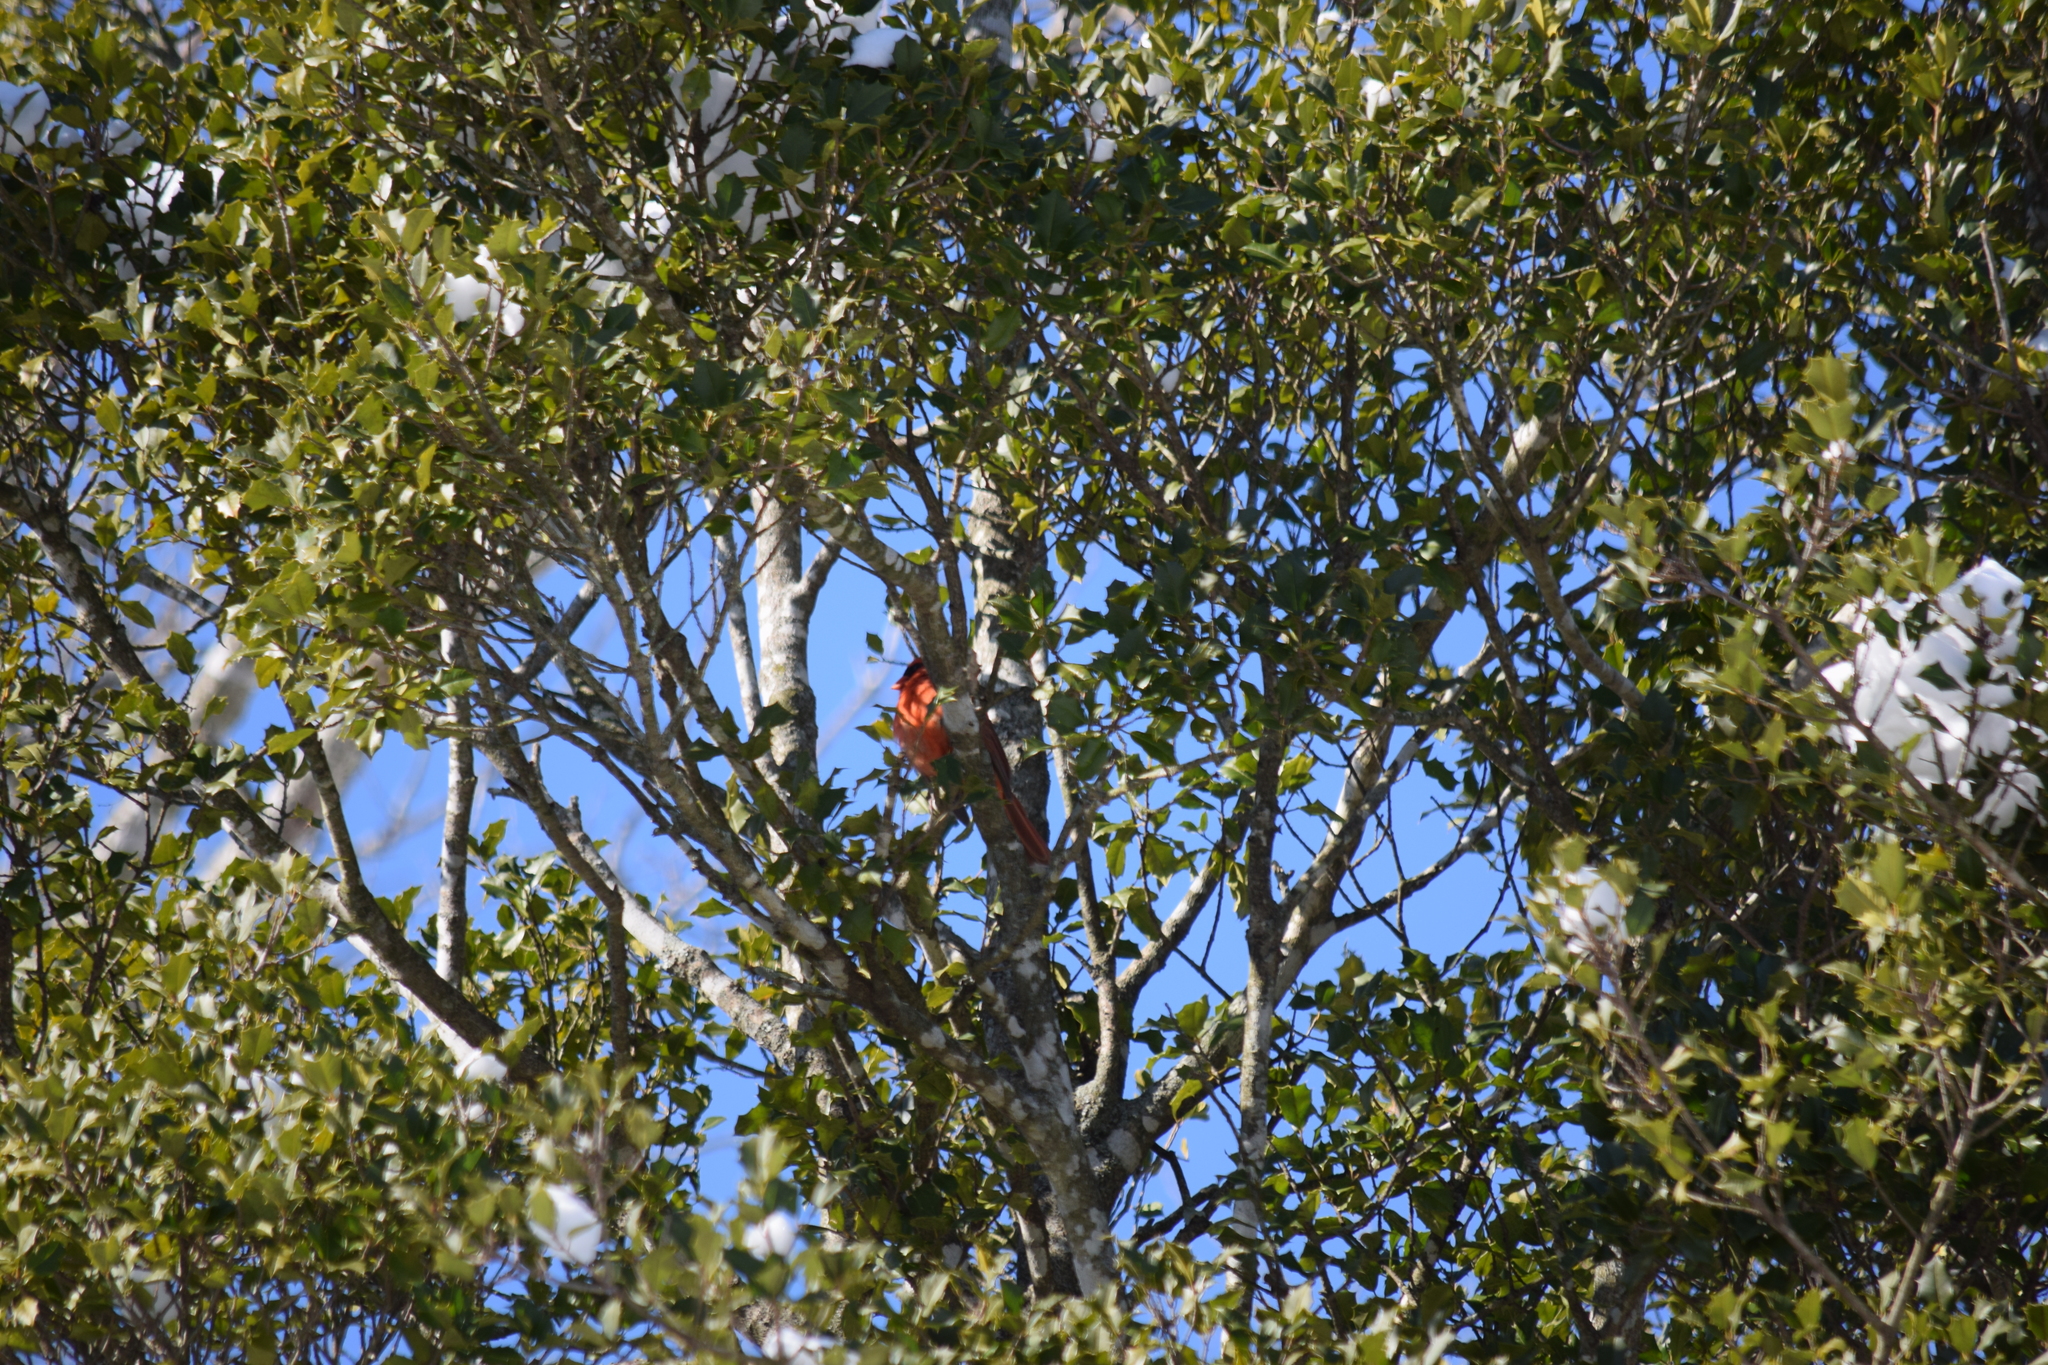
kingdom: Animalia
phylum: Chordata
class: Aves
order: Passeriformes
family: Cardinalidae
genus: Cardinalis
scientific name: Cardinalis cardinalis
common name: Northern cardinal
